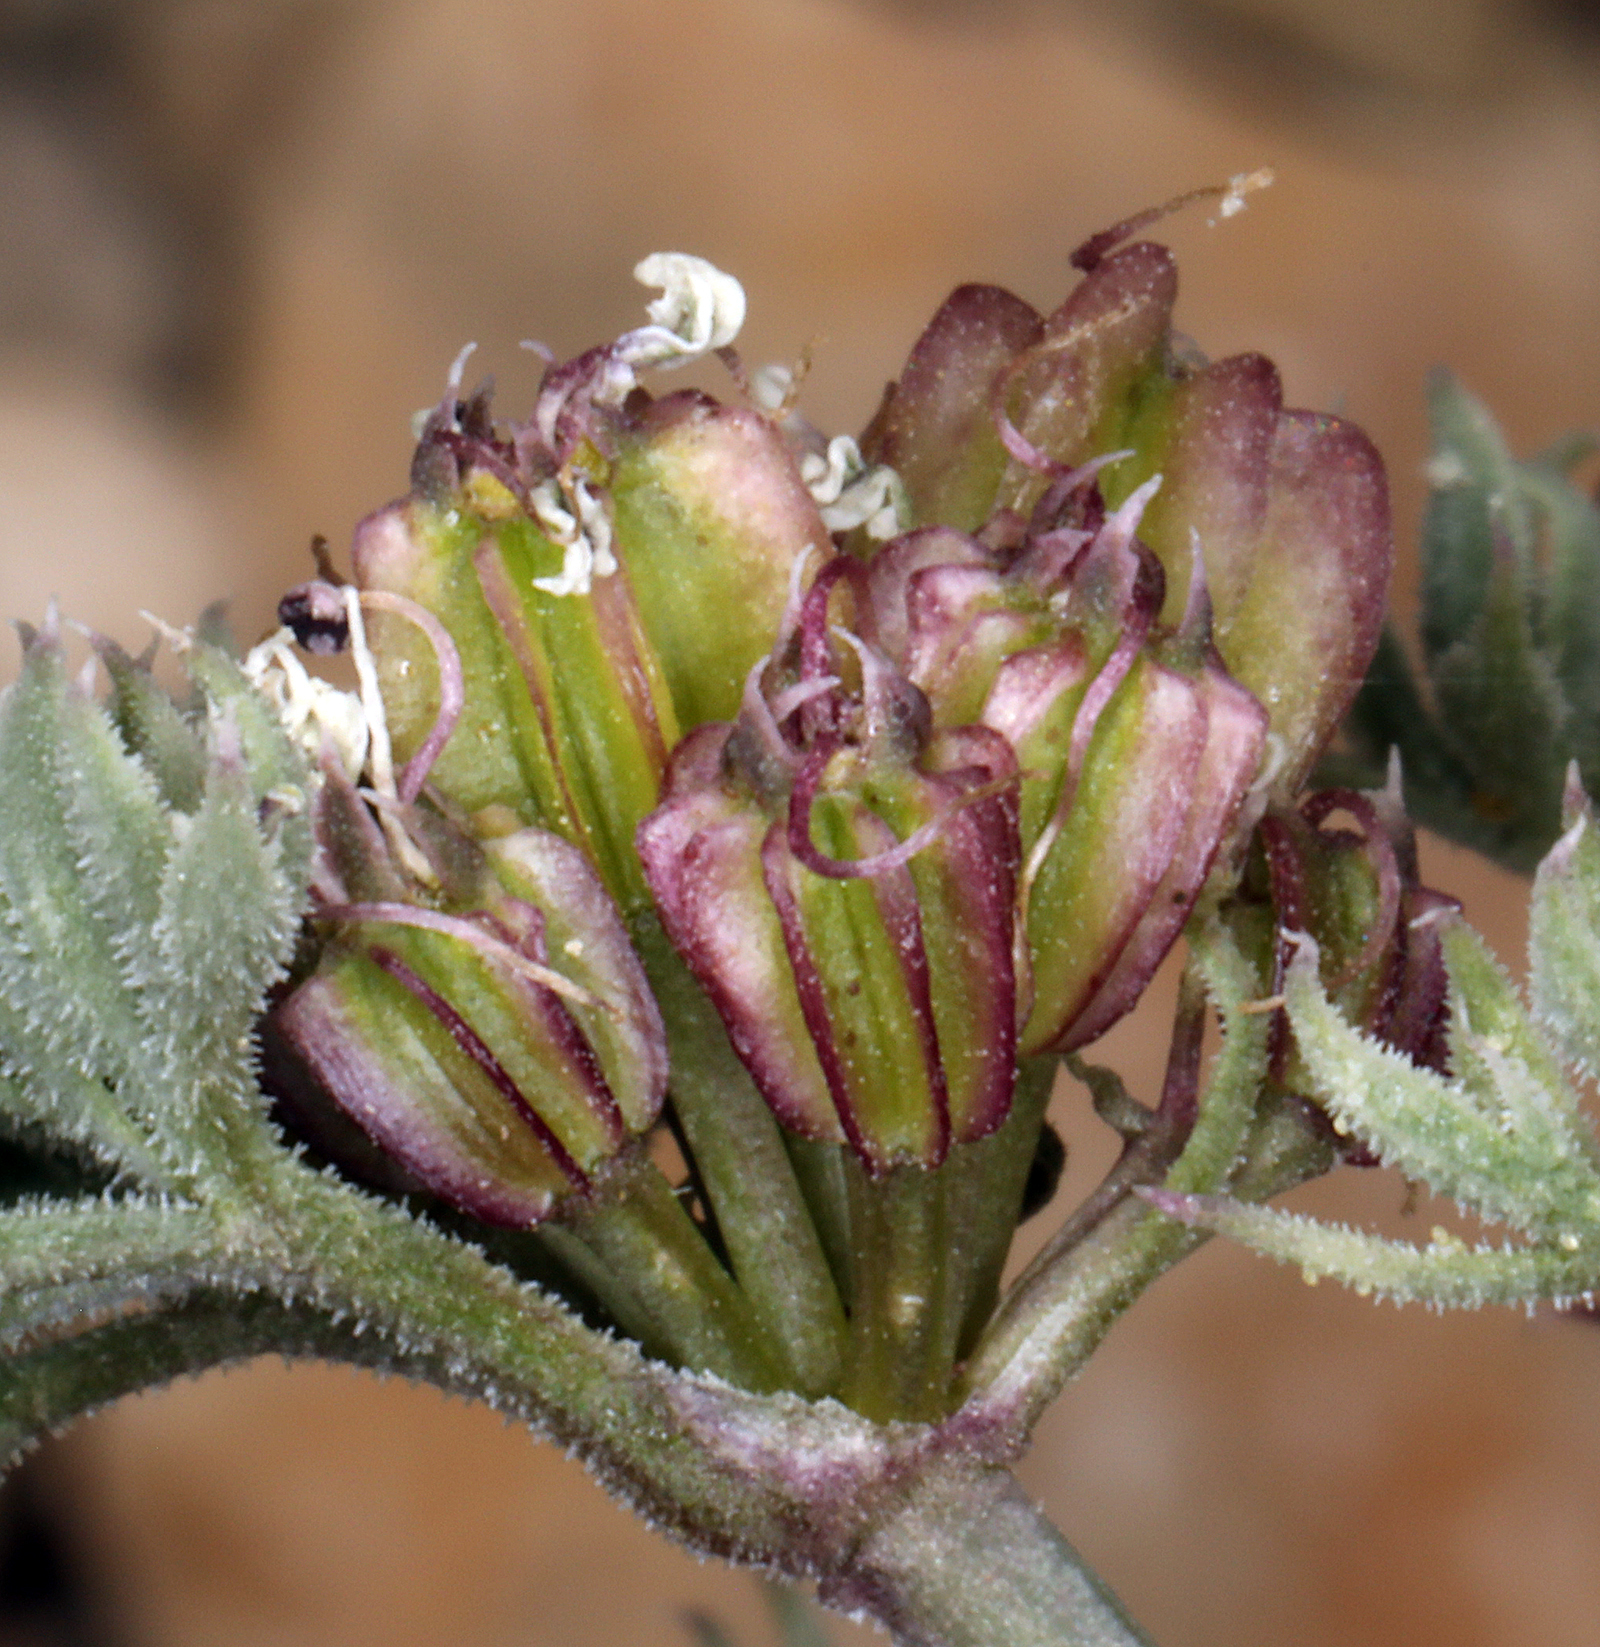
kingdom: Plantae
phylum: Tracheophyta
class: Magnoliopsida
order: Apiales
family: Apiaceae
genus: Aulospermum
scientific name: Aulospermum aboriginum
